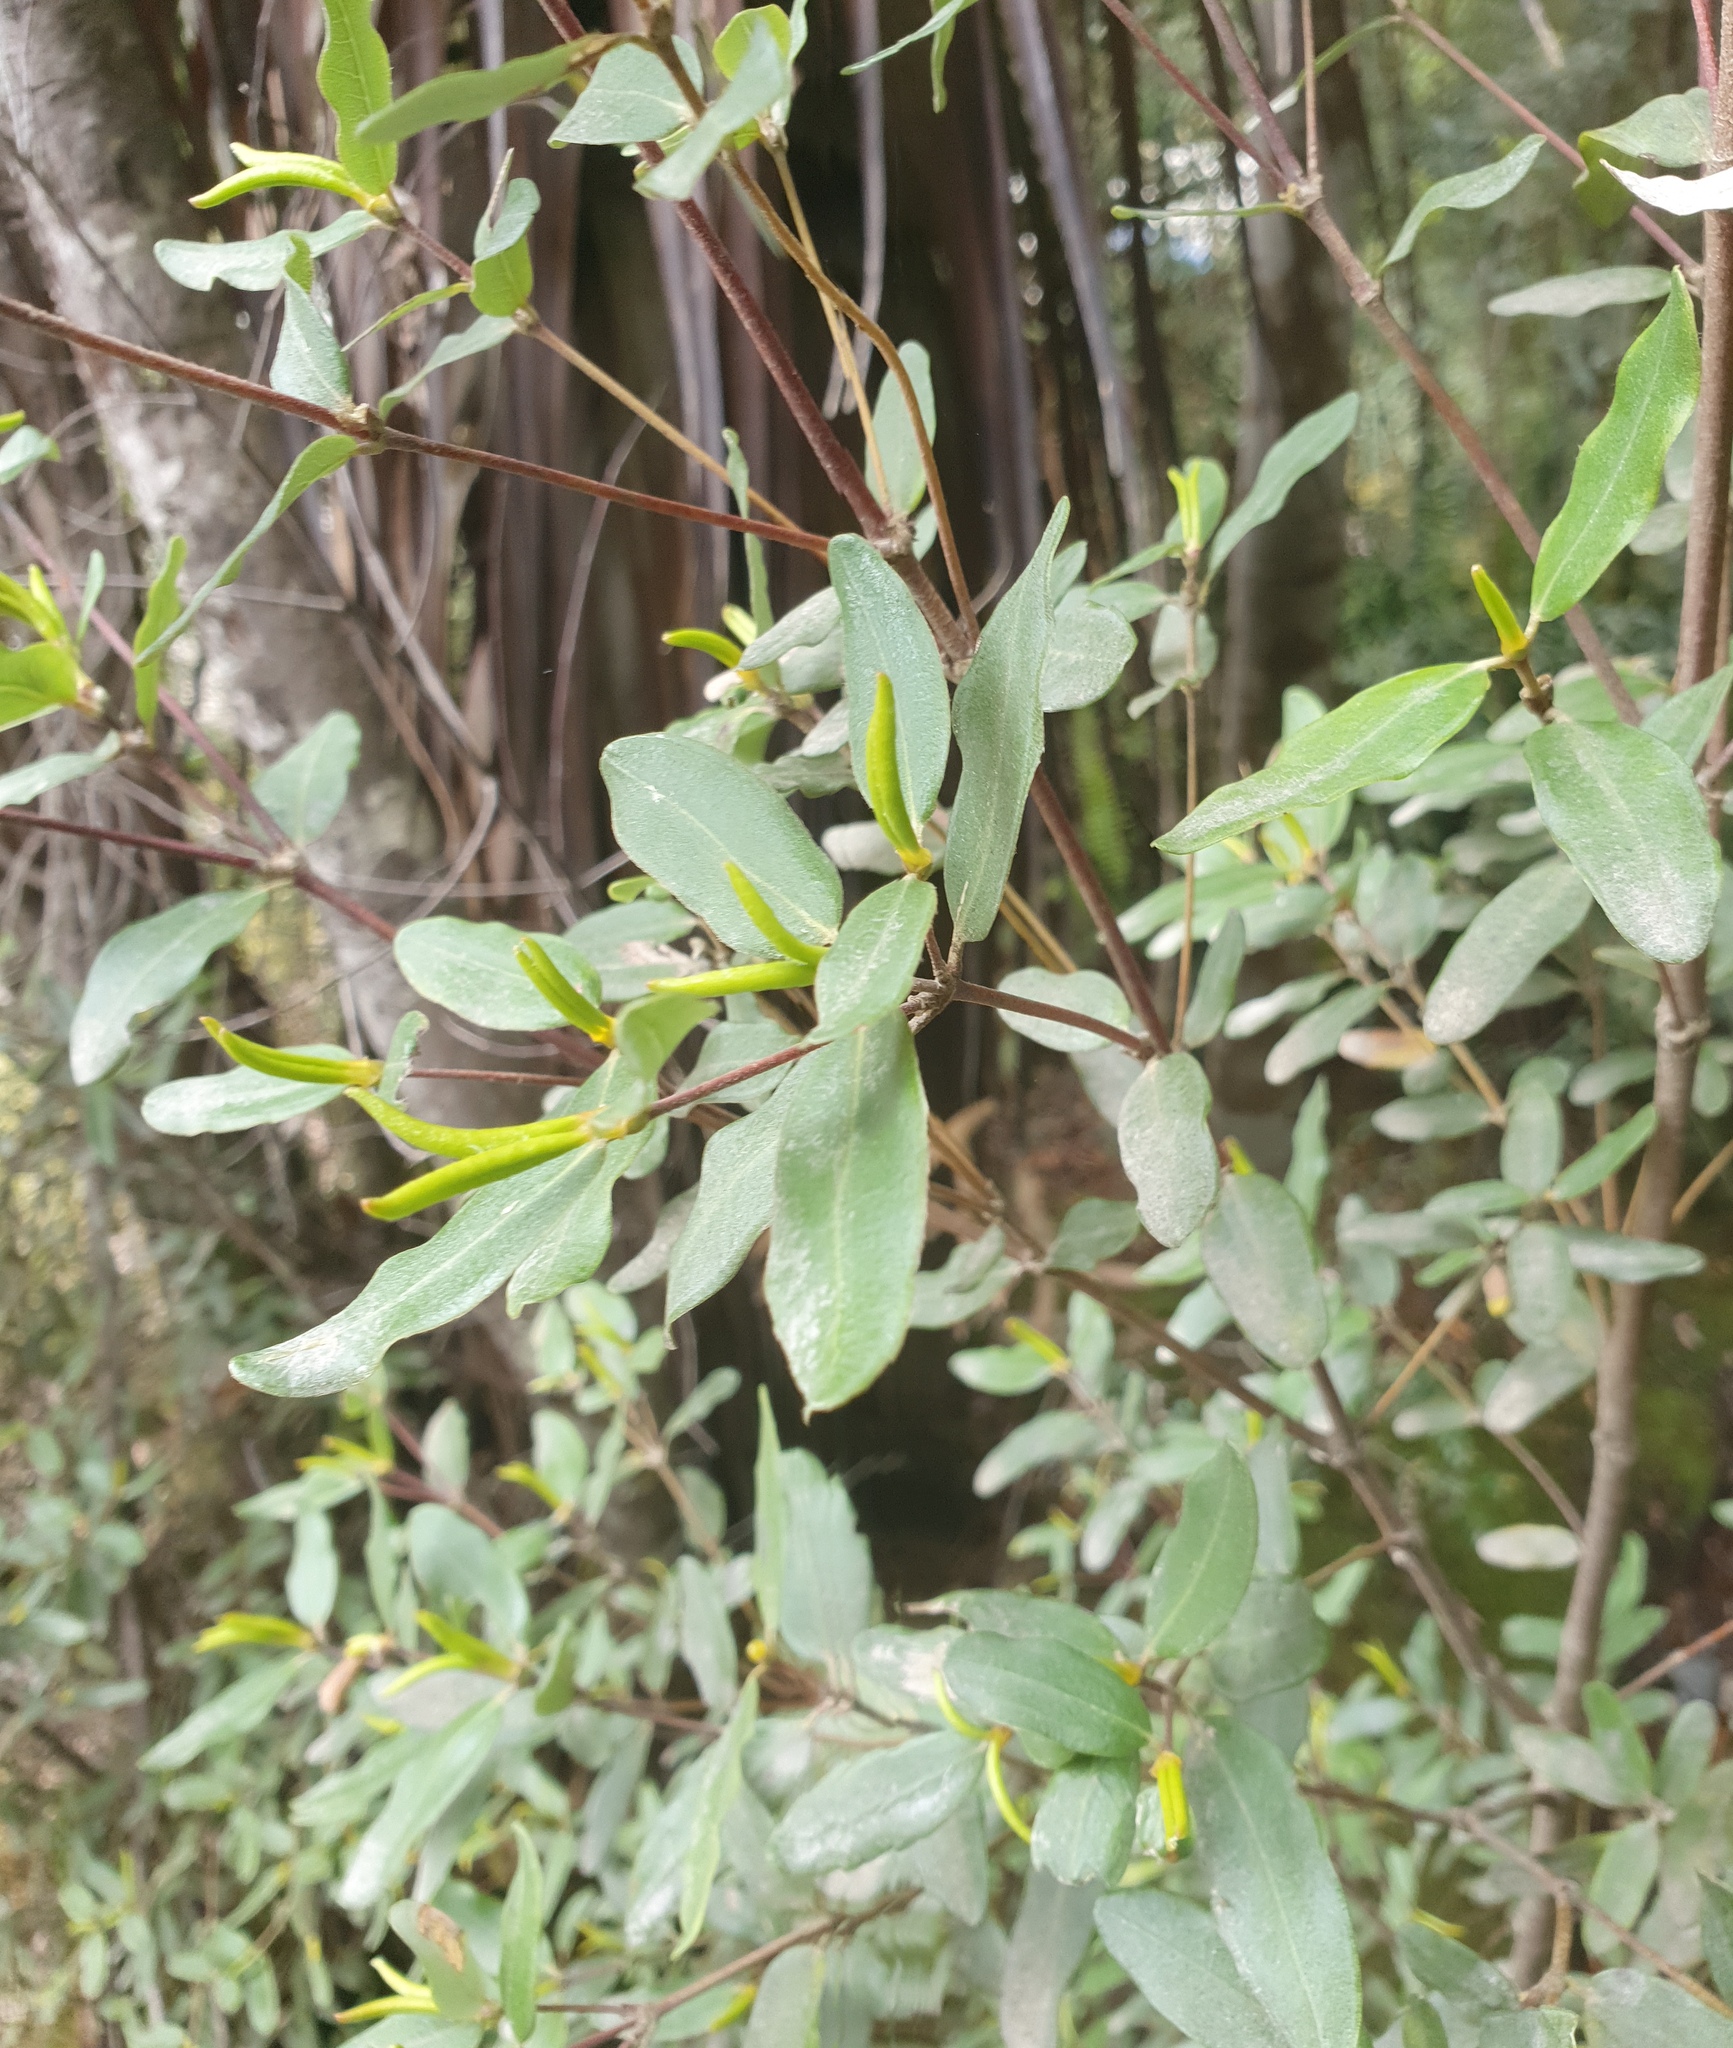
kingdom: Plantae
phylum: Tracheophyta
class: Magnoliopsida
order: Oxalidales
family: Cunoniaceae
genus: Eucryphia
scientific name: Eucryphia lucida
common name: Leatherwood
